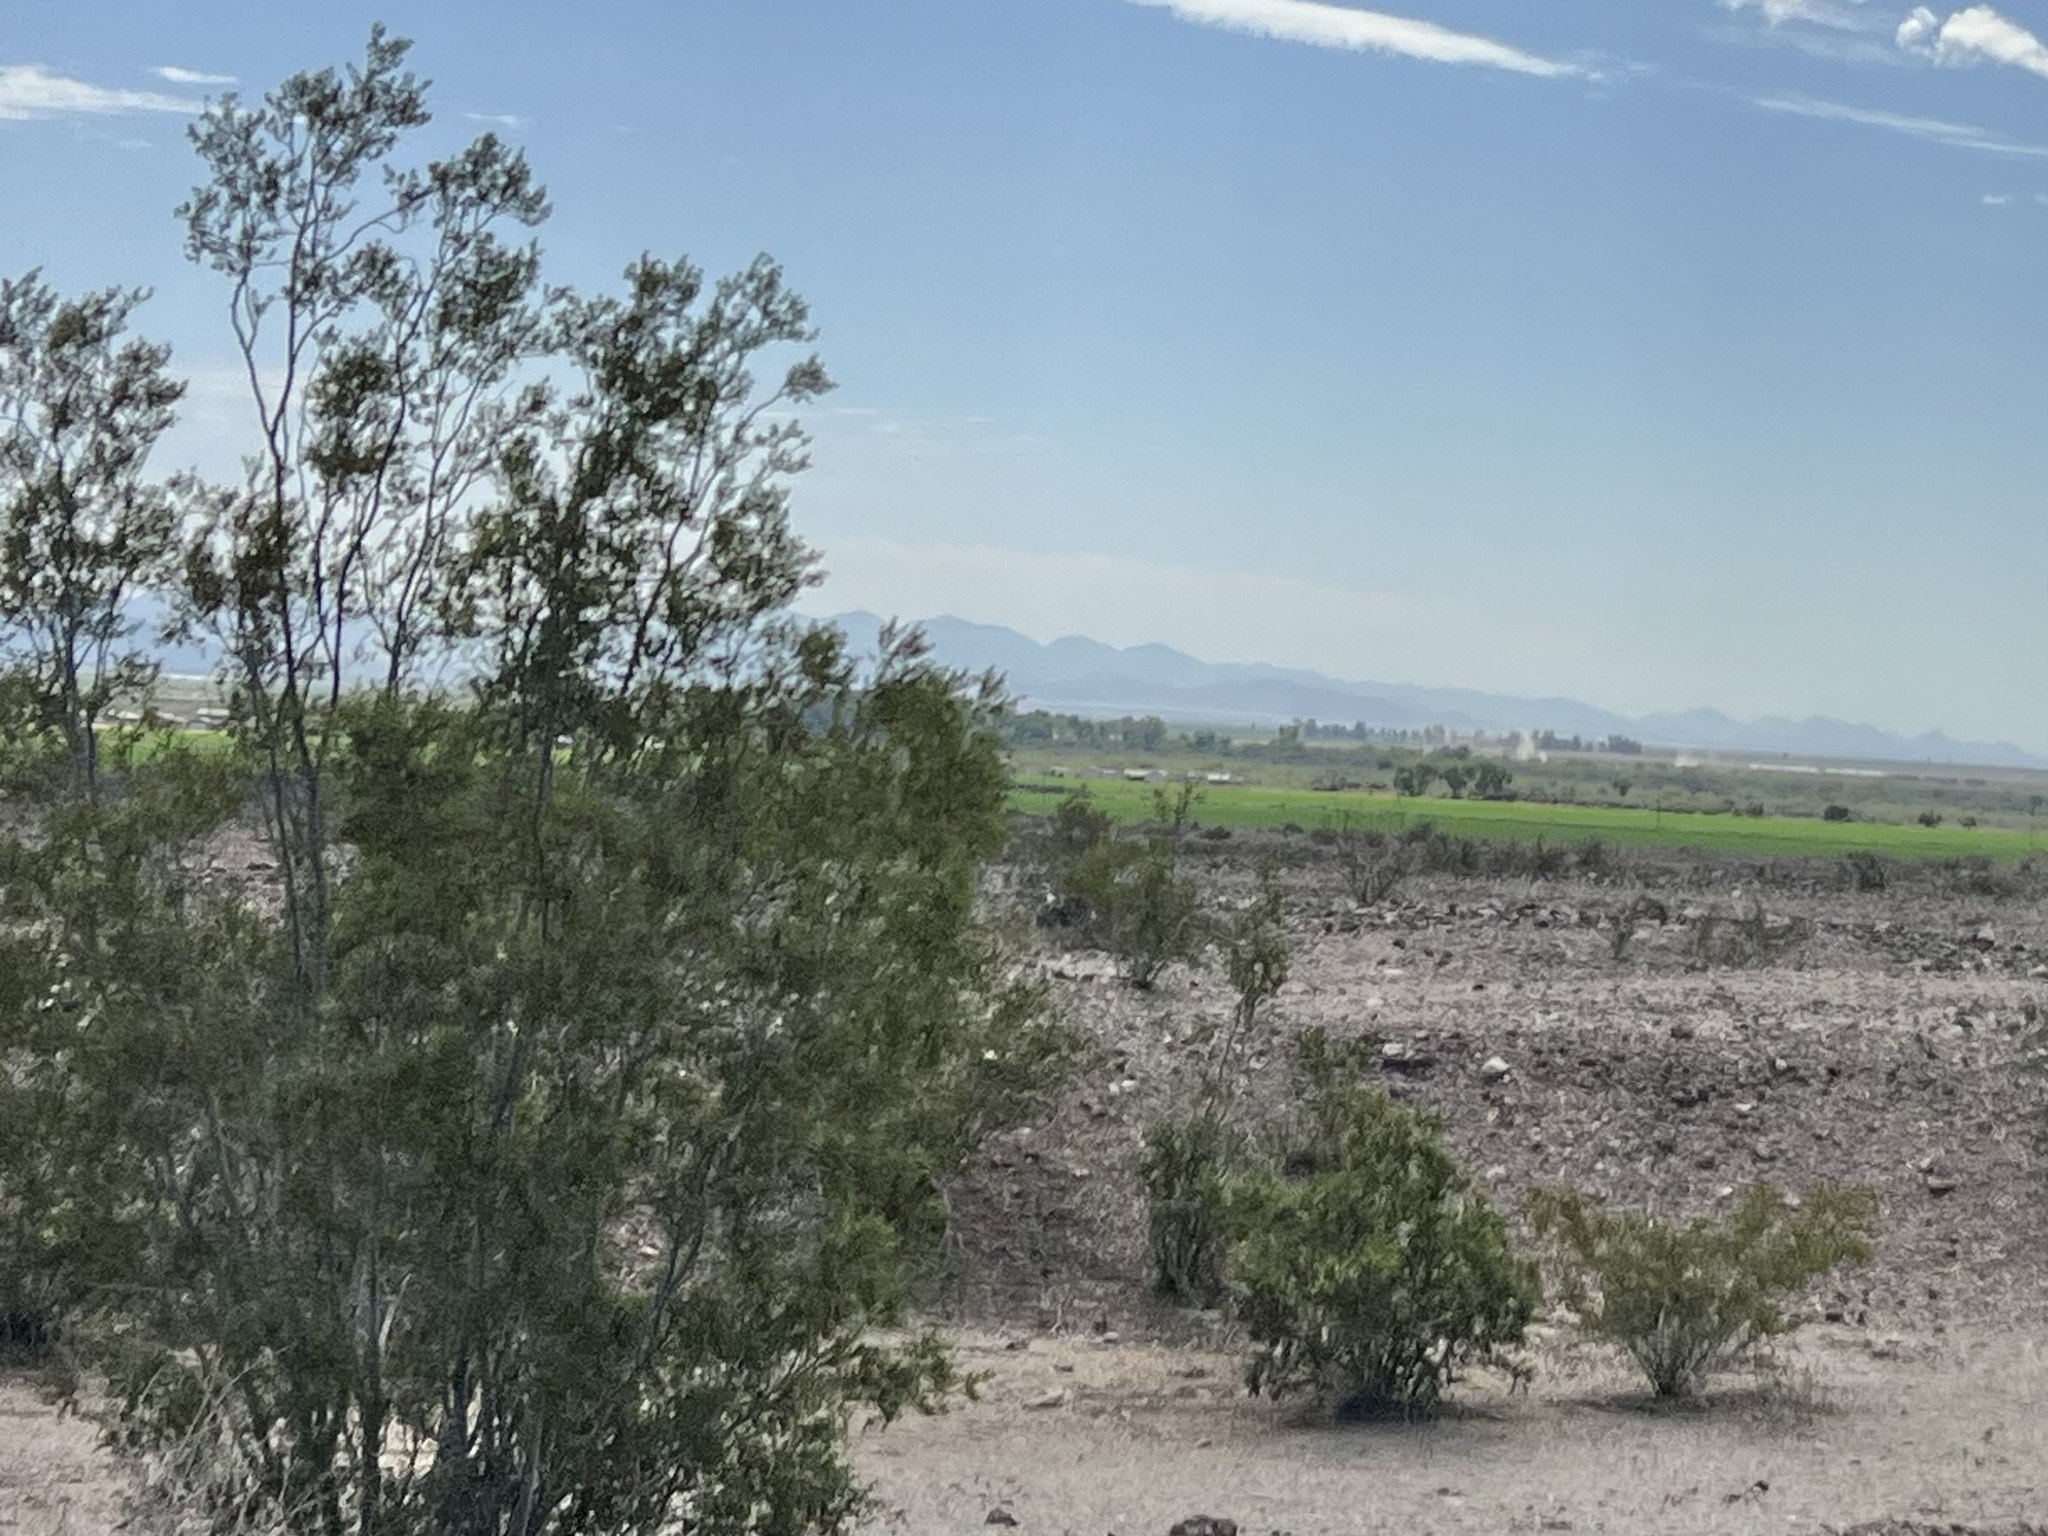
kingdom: Plantae
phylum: Tracheophyta
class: Magnoliopsida
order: Zygophyllales
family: Zygophyllaceae
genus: Larrea
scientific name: Larrea tridentata
